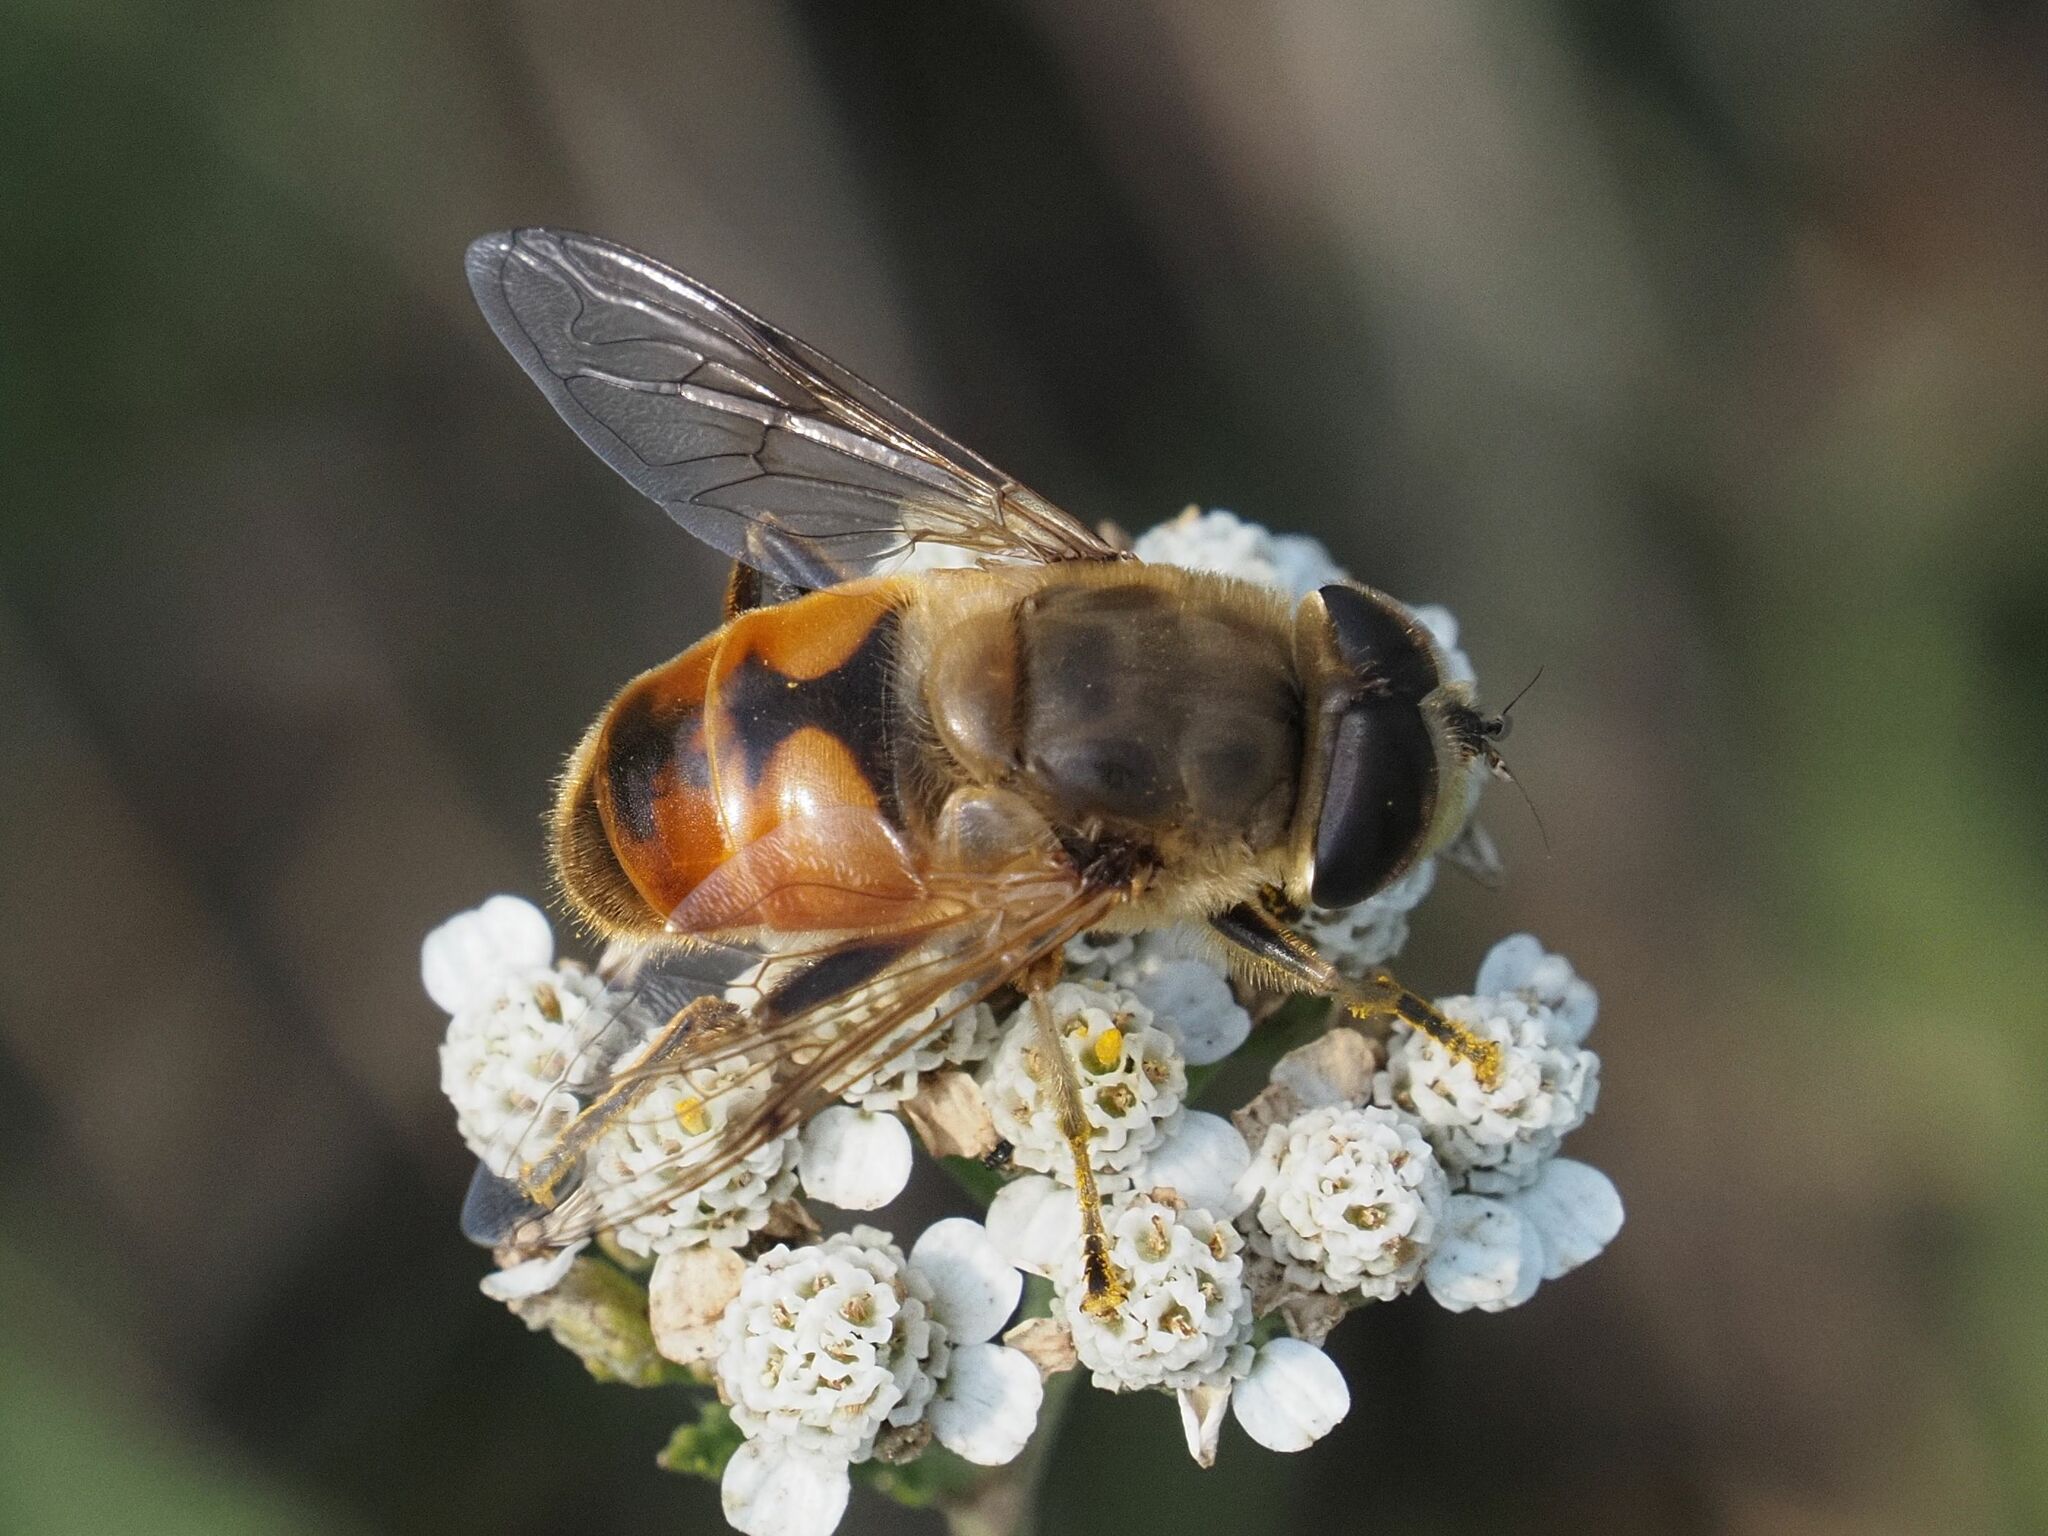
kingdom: Animalia
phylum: Arthropoda
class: Insecta
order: Diptera
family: Syrphidae
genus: Eristalis
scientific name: Eristalis tenax
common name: Drone fly
